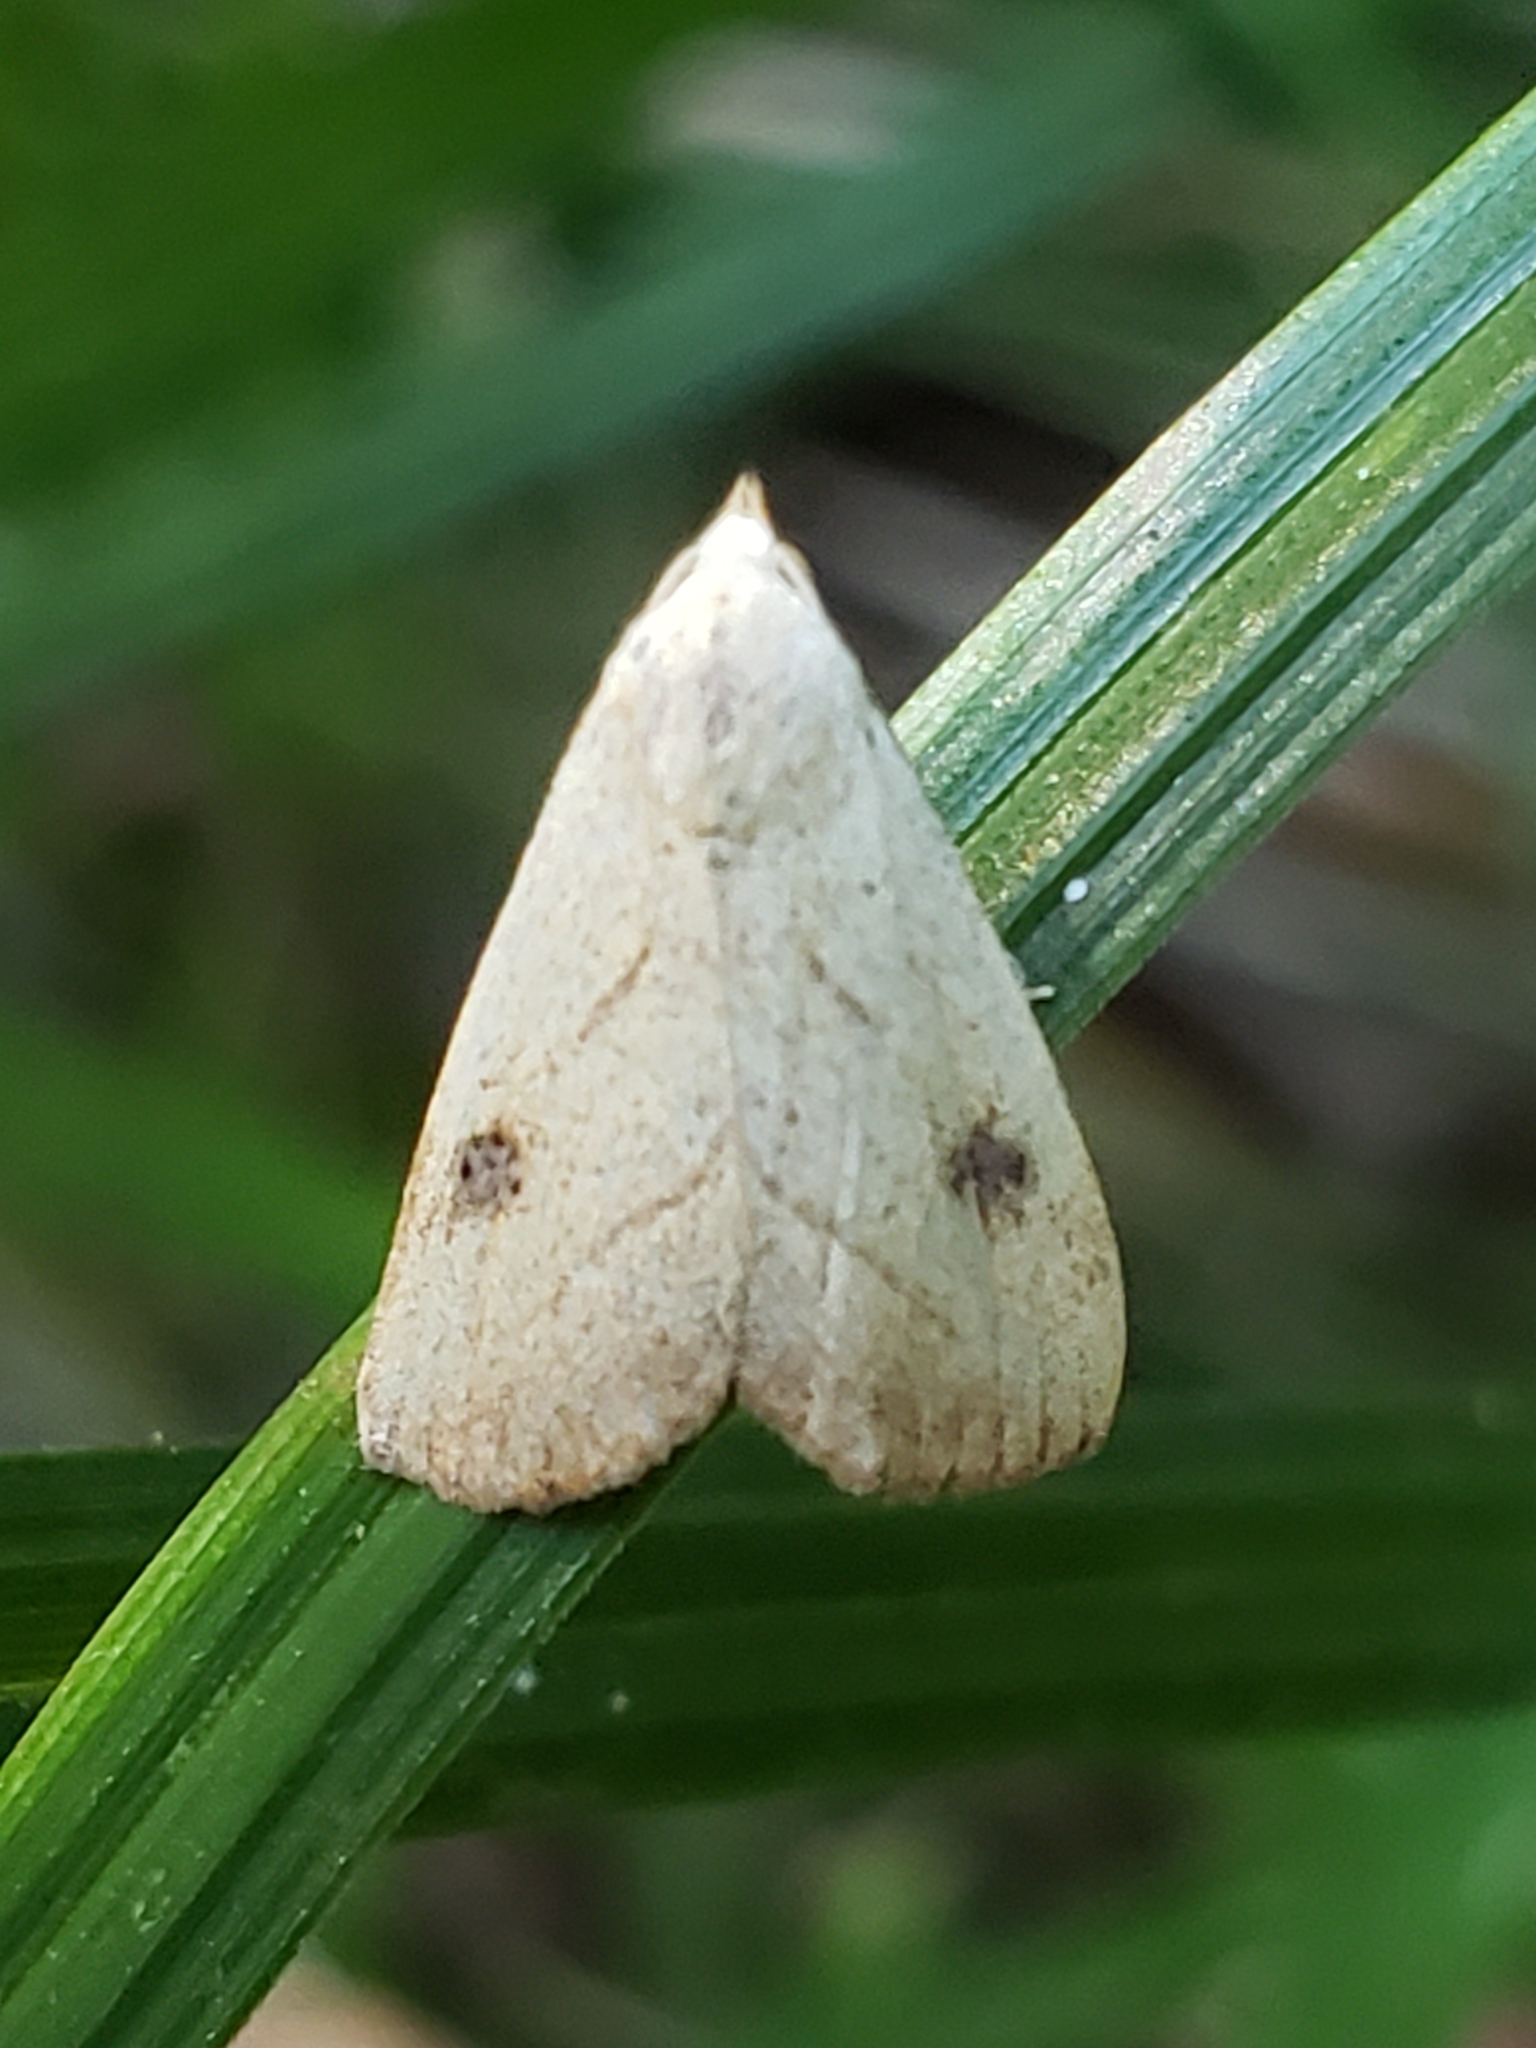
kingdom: Animalia
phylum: Arthropoda
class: Insecta
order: Lepidoptera
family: Erebidae
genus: Rivula
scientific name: Rivula propinqualis
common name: Spotted grass moth
